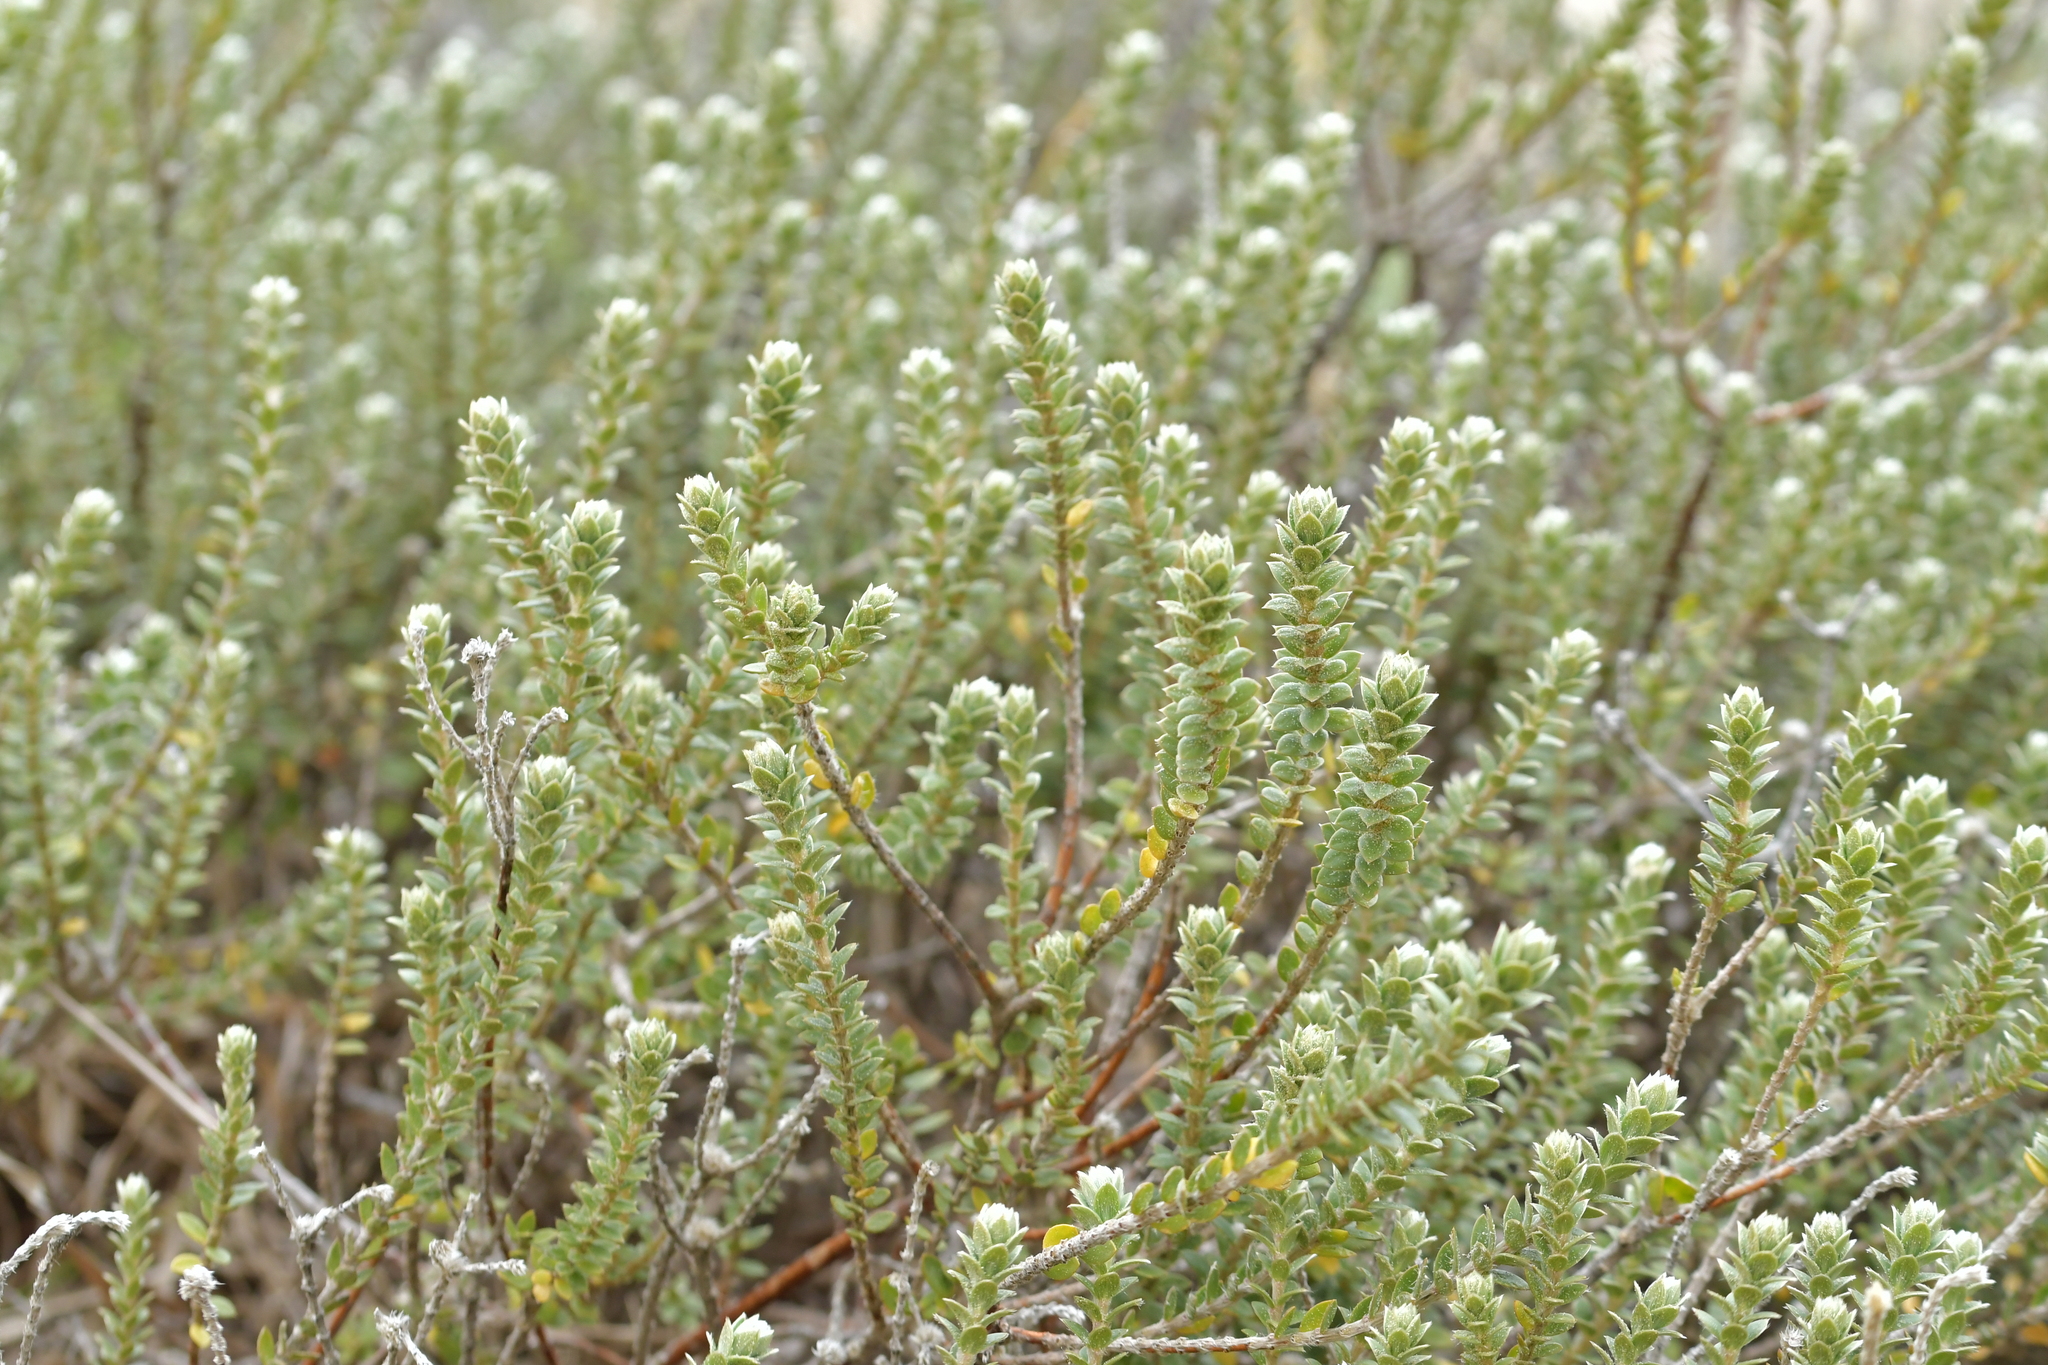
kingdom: Plantae
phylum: Tracheophyta
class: Magnoliopsida
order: Malvales
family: Thymelaeaceae
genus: Pimelea
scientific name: Pimelea villosa
